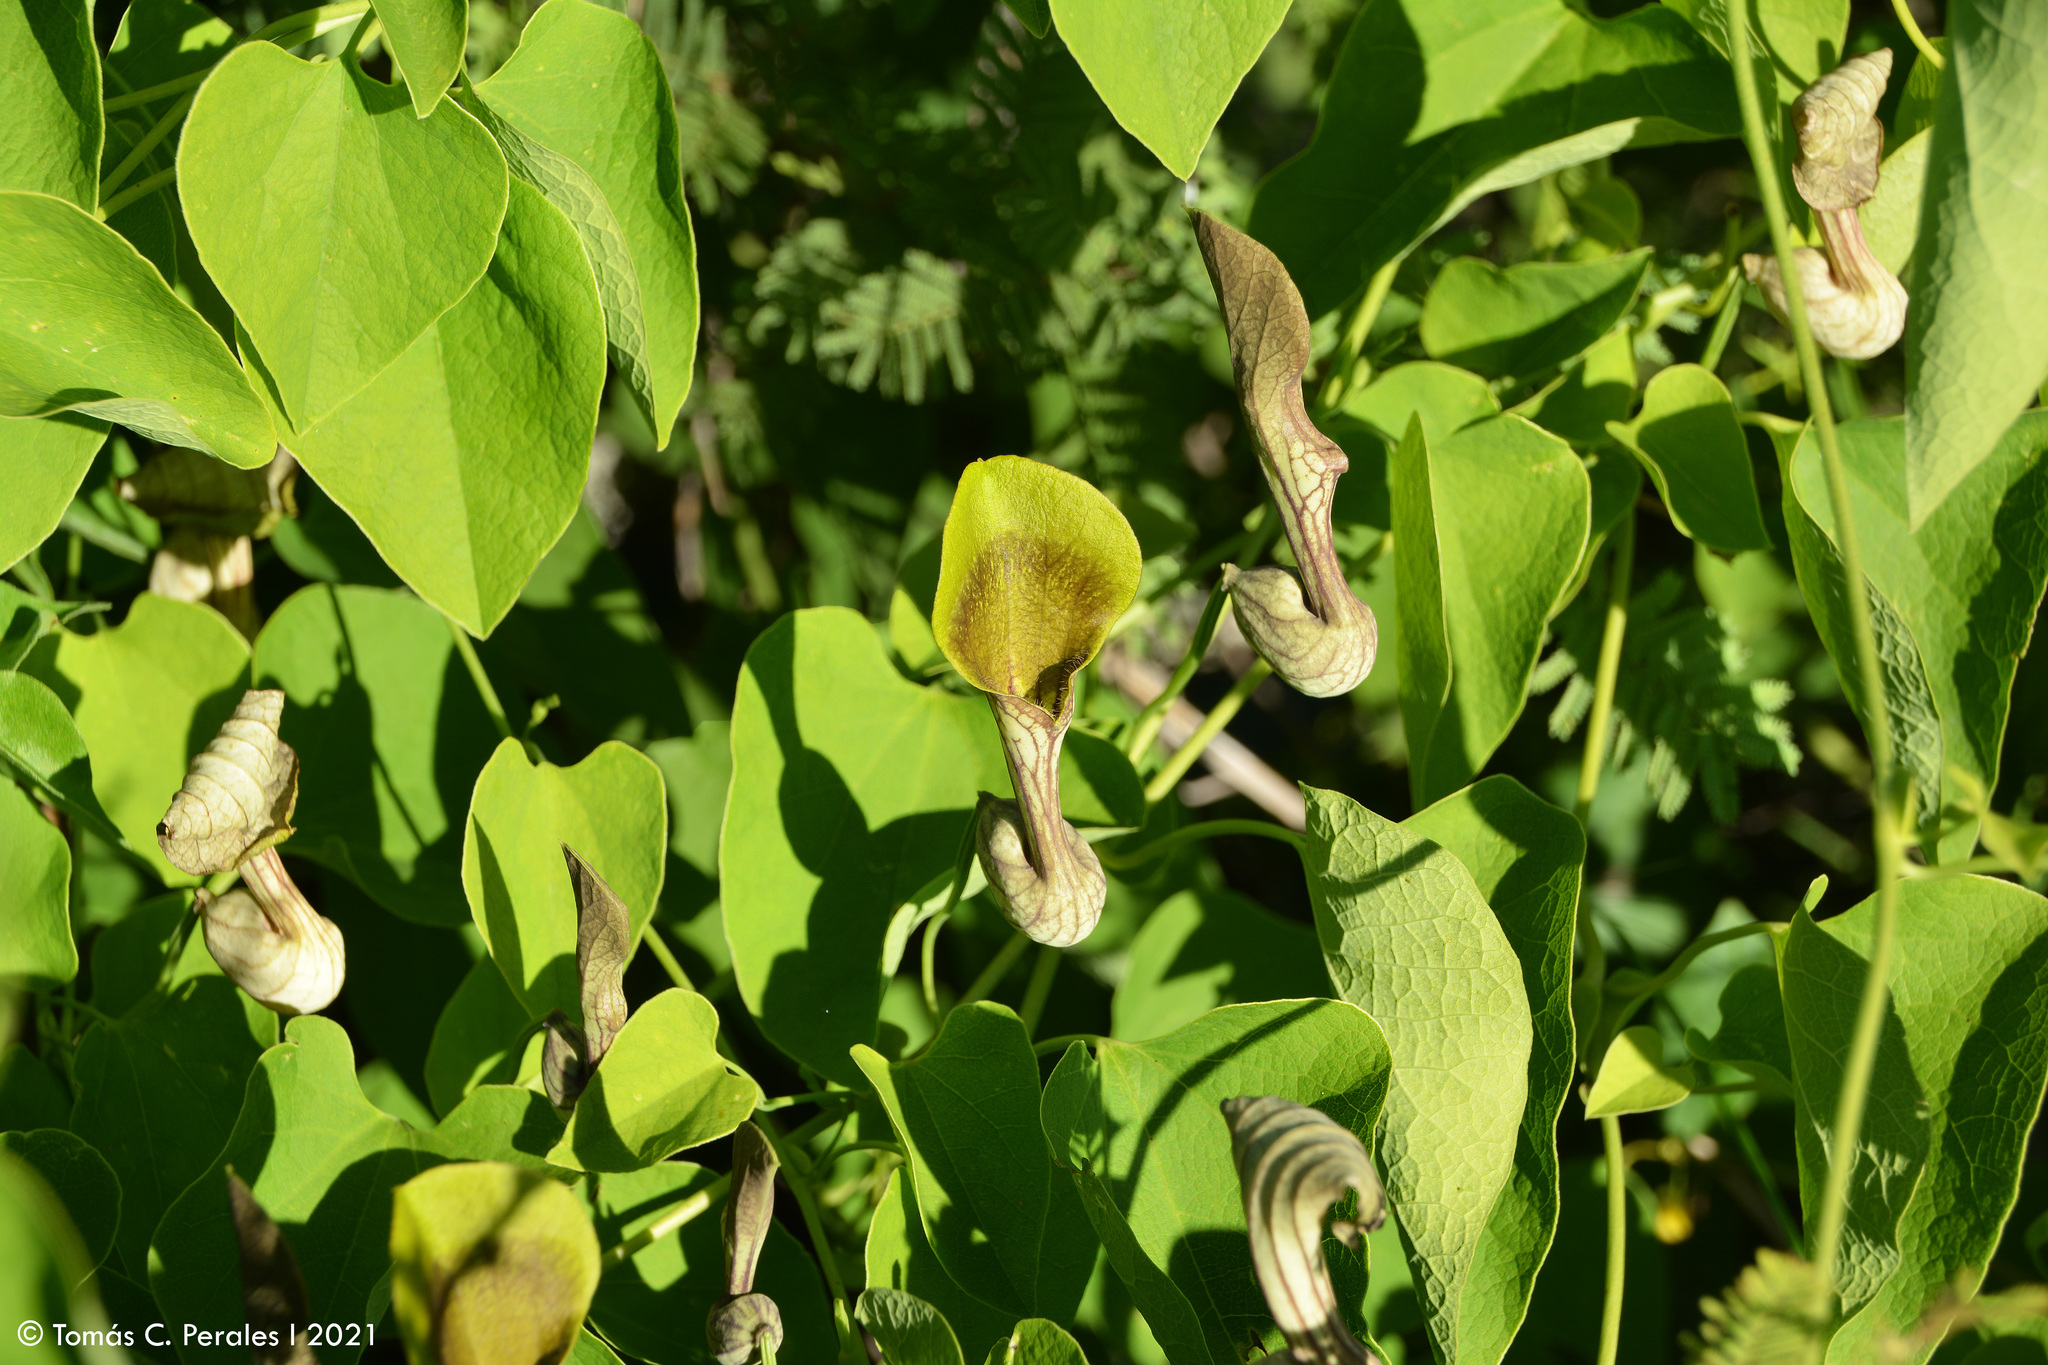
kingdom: Plantae
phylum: Tracheophyta
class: Magnoliopsida
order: Piperales
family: Aristolochiaceae
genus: Aristolochia
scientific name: Aristolochia argentina
